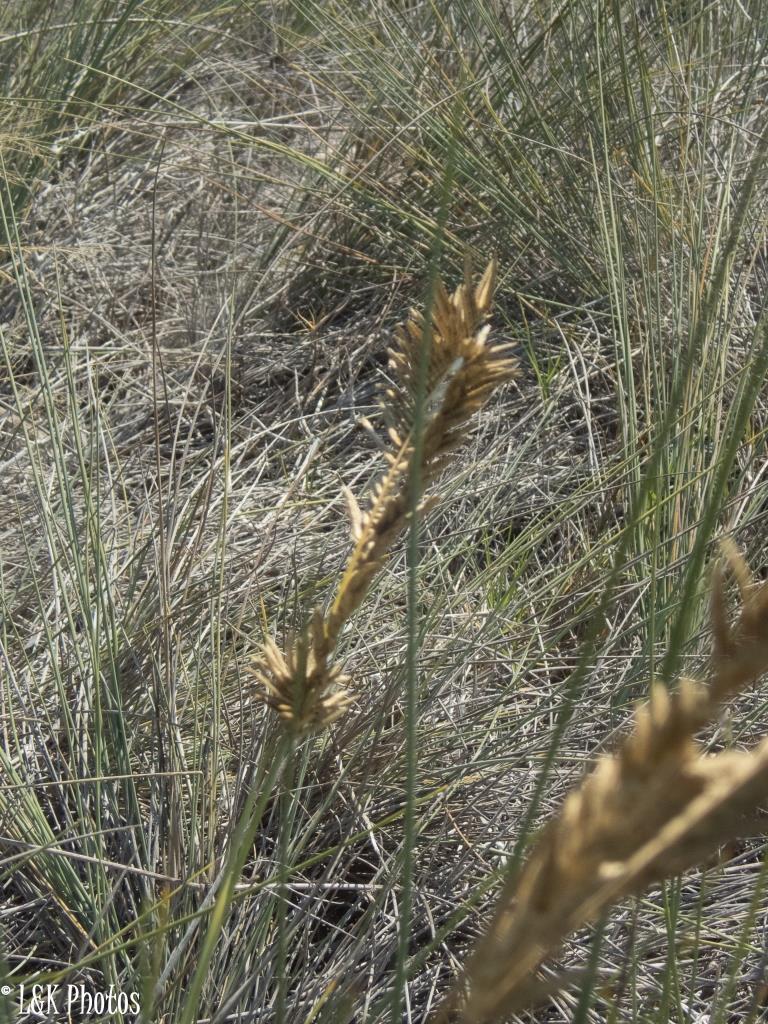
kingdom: Plantae
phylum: Tracheophyta
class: Liliopsida
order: Poales
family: Poaceae
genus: Sclerodactylon
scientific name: Sclerodactylon macrostachyum
